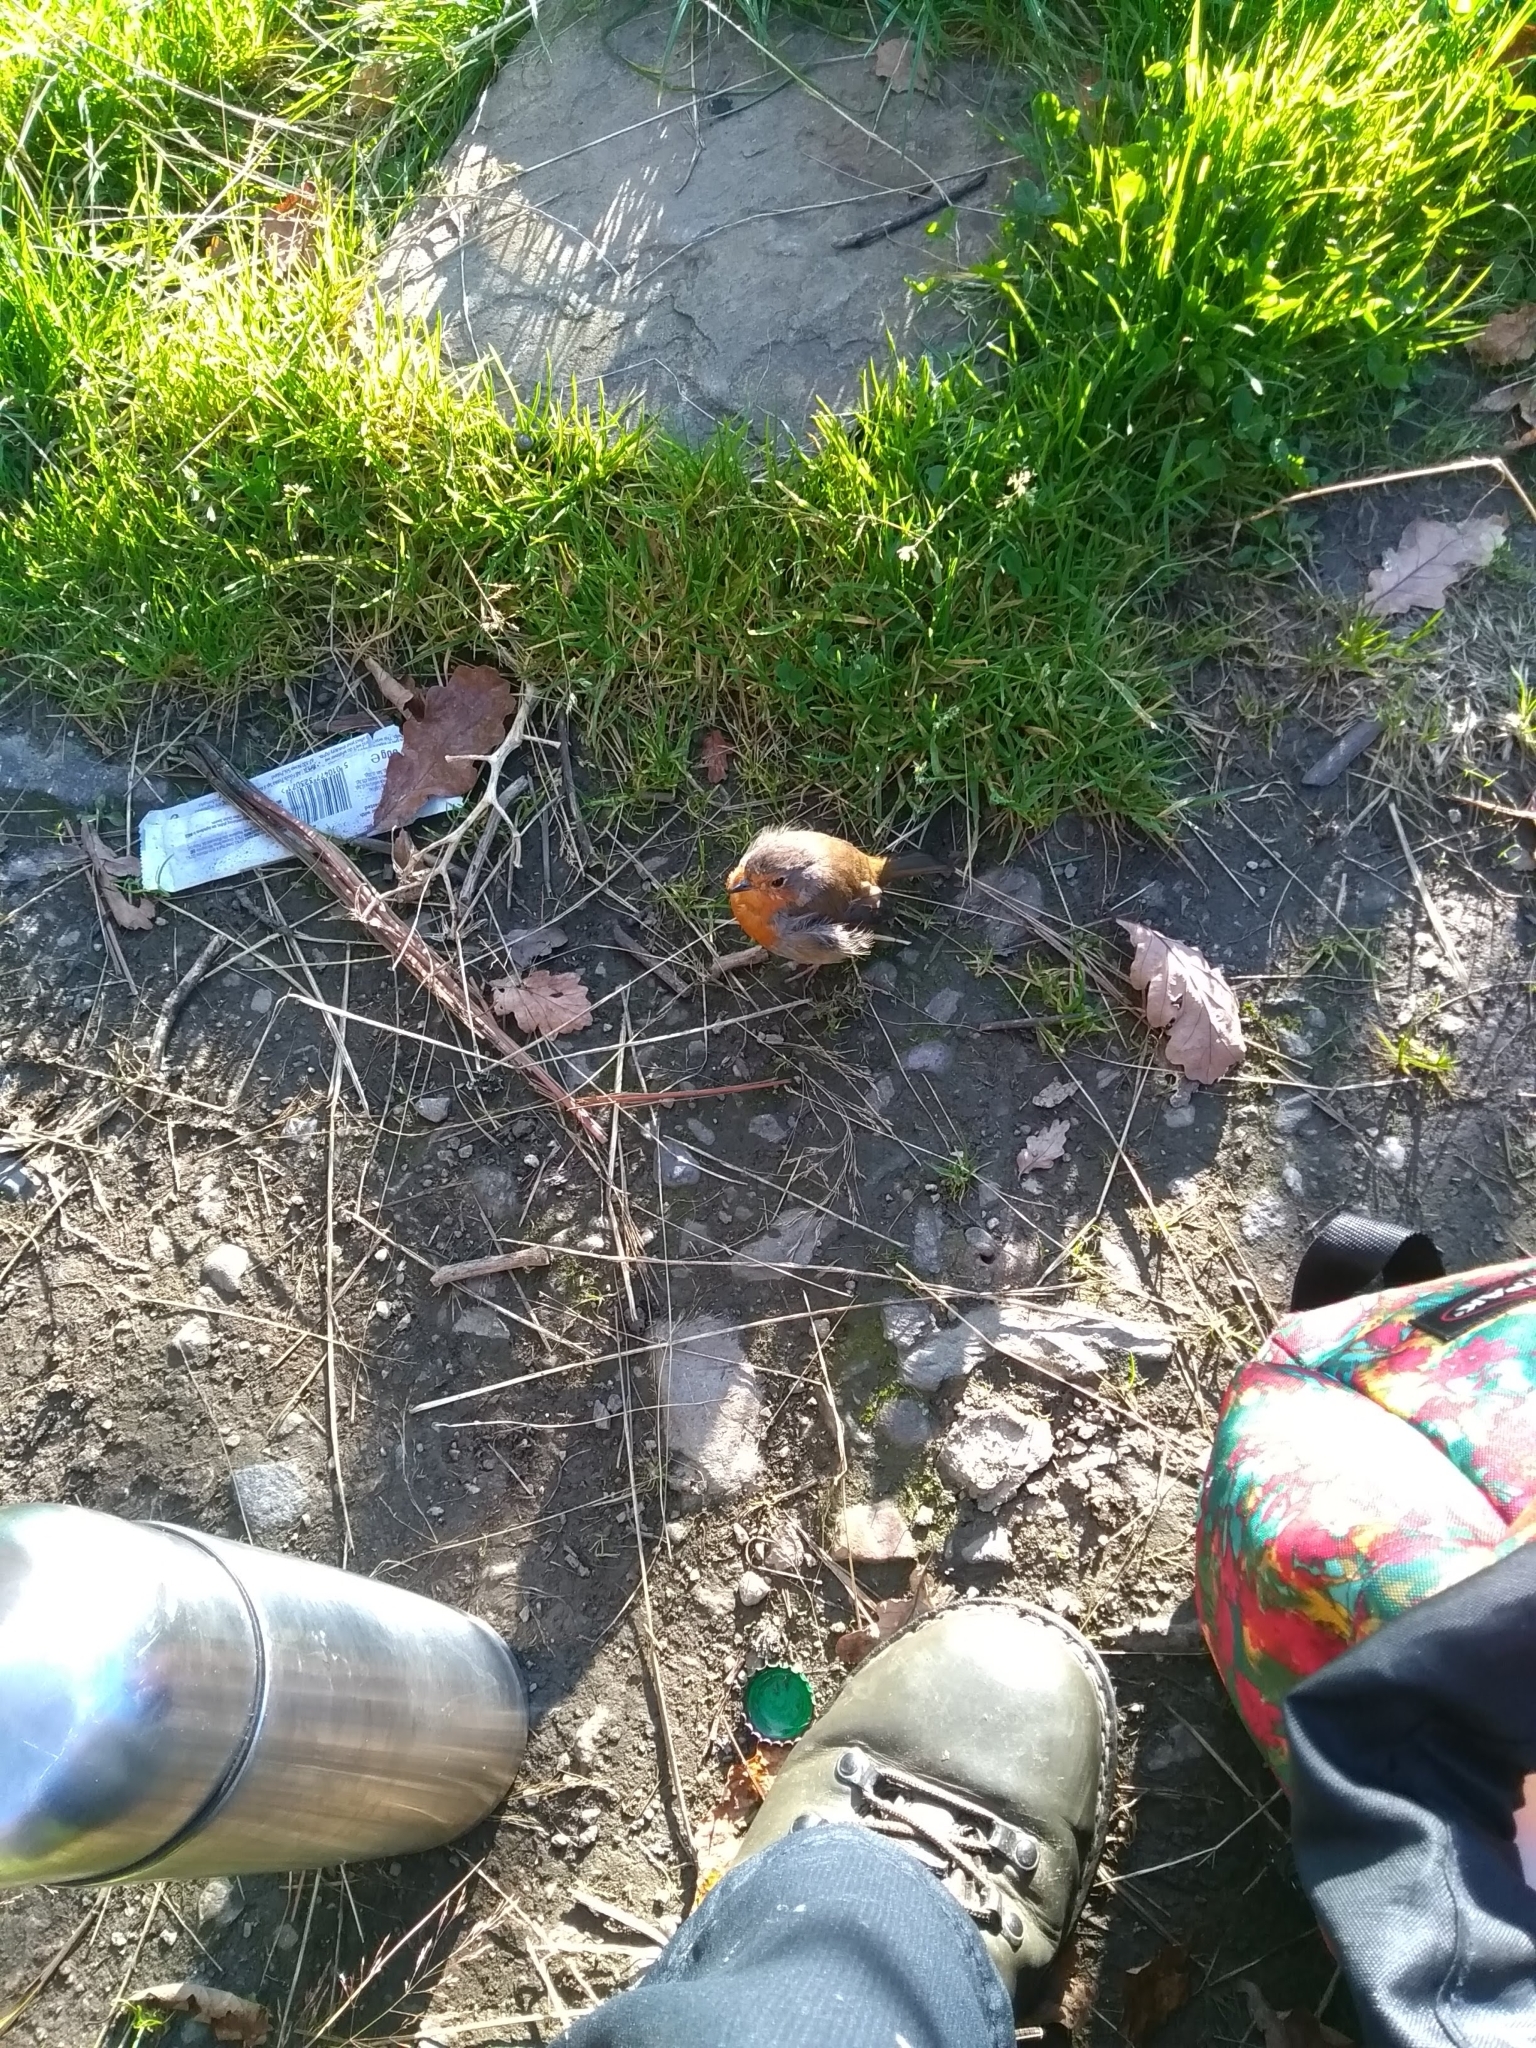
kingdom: Animalia
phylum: Chordata
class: Aves
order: Passeriformes
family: Muscicapidae
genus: Erithacus
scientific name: Erithacus rubecula
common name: European robin
